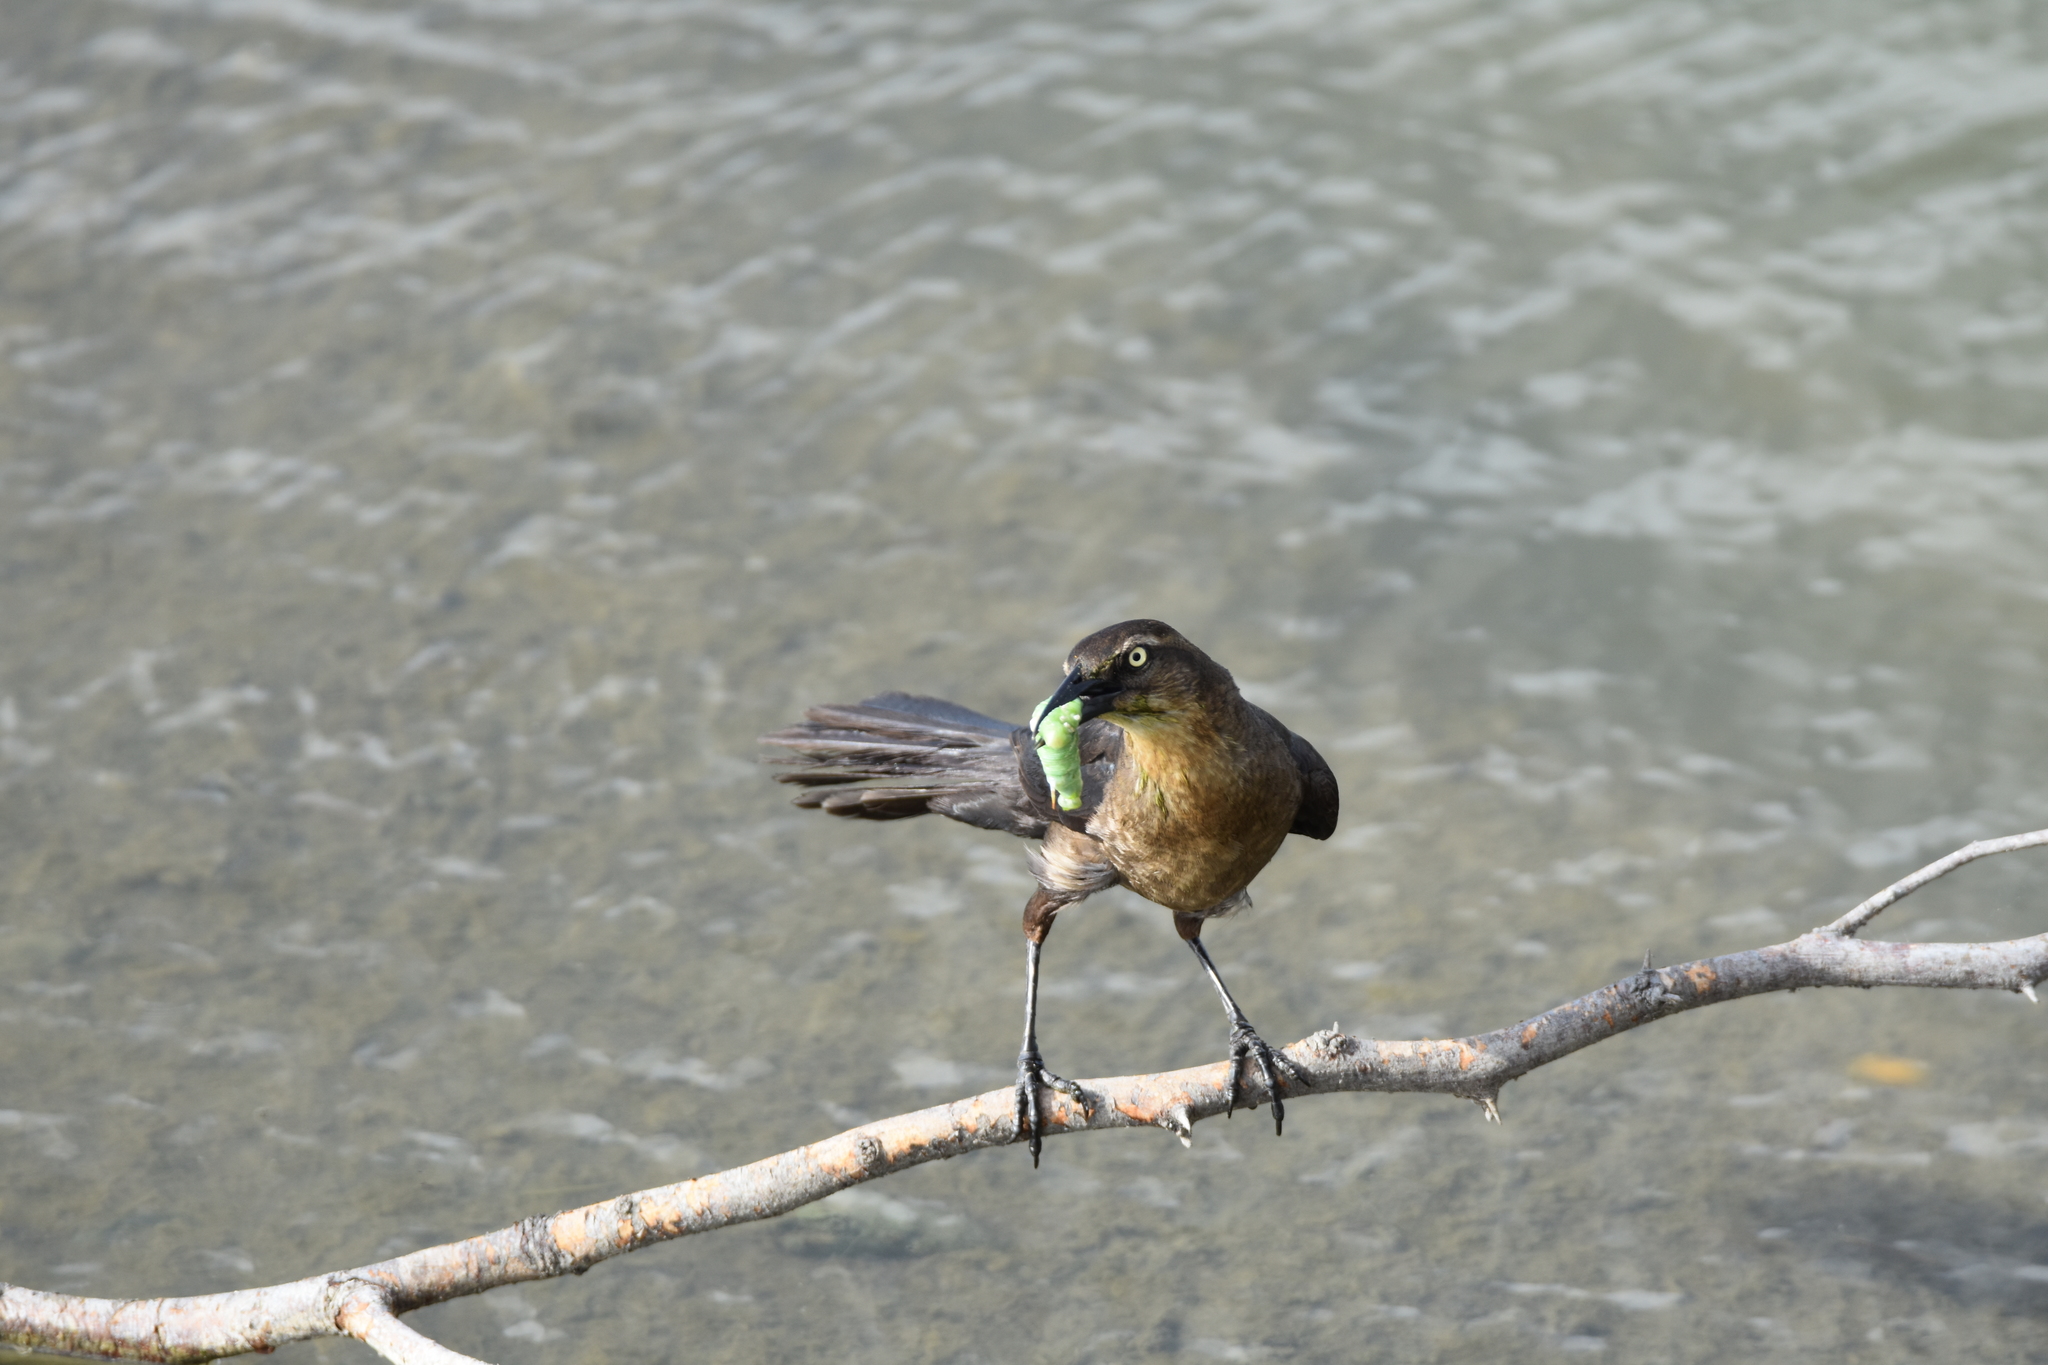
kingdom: Animalia
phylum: Chordata
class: Aves
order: Passeriformes
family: Icteridae
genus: Quiscalus
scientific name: Quiscalus mexicanus
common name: Great-tailed grackle
